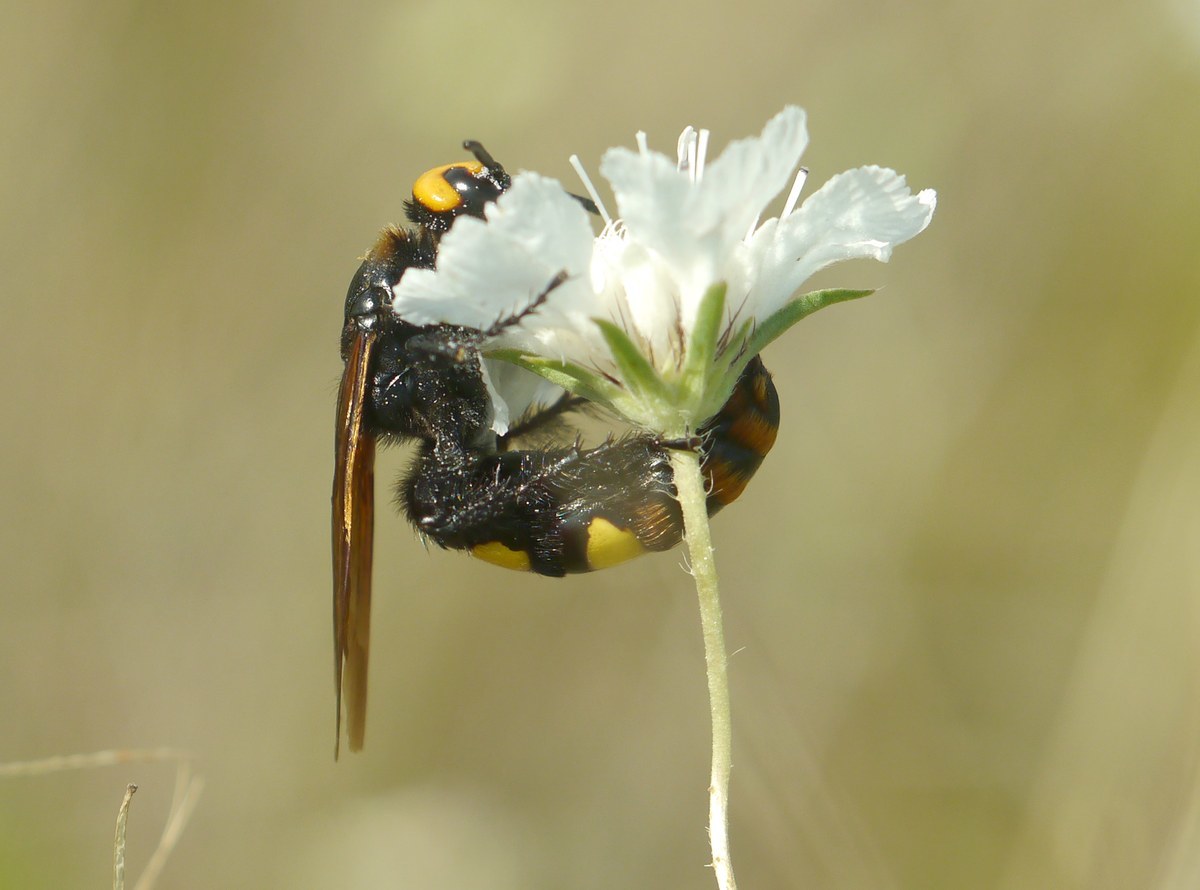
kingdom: Animalia
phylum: Arthropoda
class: Insecta
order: Hymenoptera
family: Scoliidae
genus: Megascolia
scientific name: Megascolia maculata
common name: Mammoth wasp
